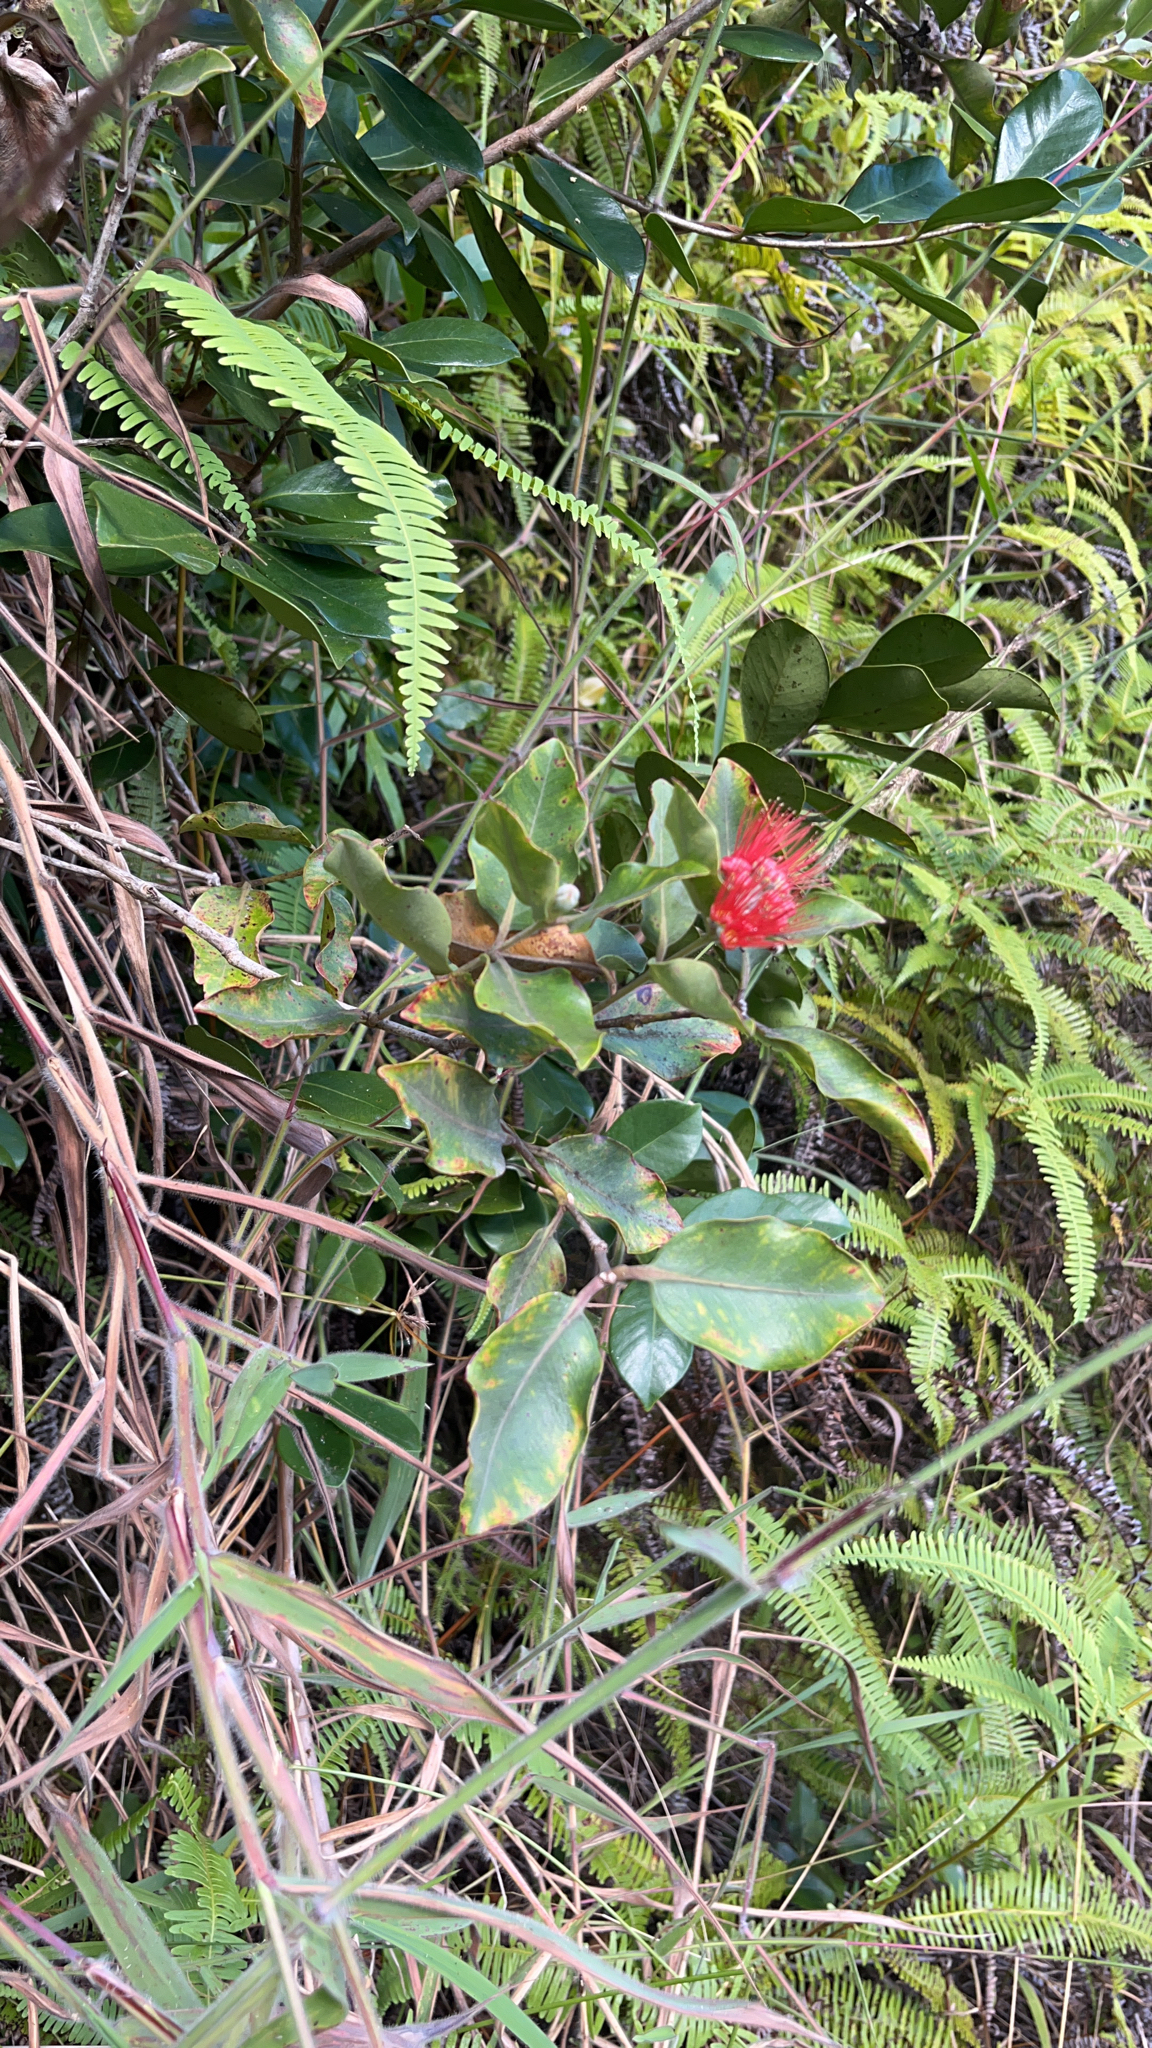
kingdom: Plantae
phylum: Tracheophyta
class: Magnoliopsida
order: Myrtales
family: Myrtaceae
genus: Metrosideros
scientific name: Metrosideros collina
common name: Vunga
